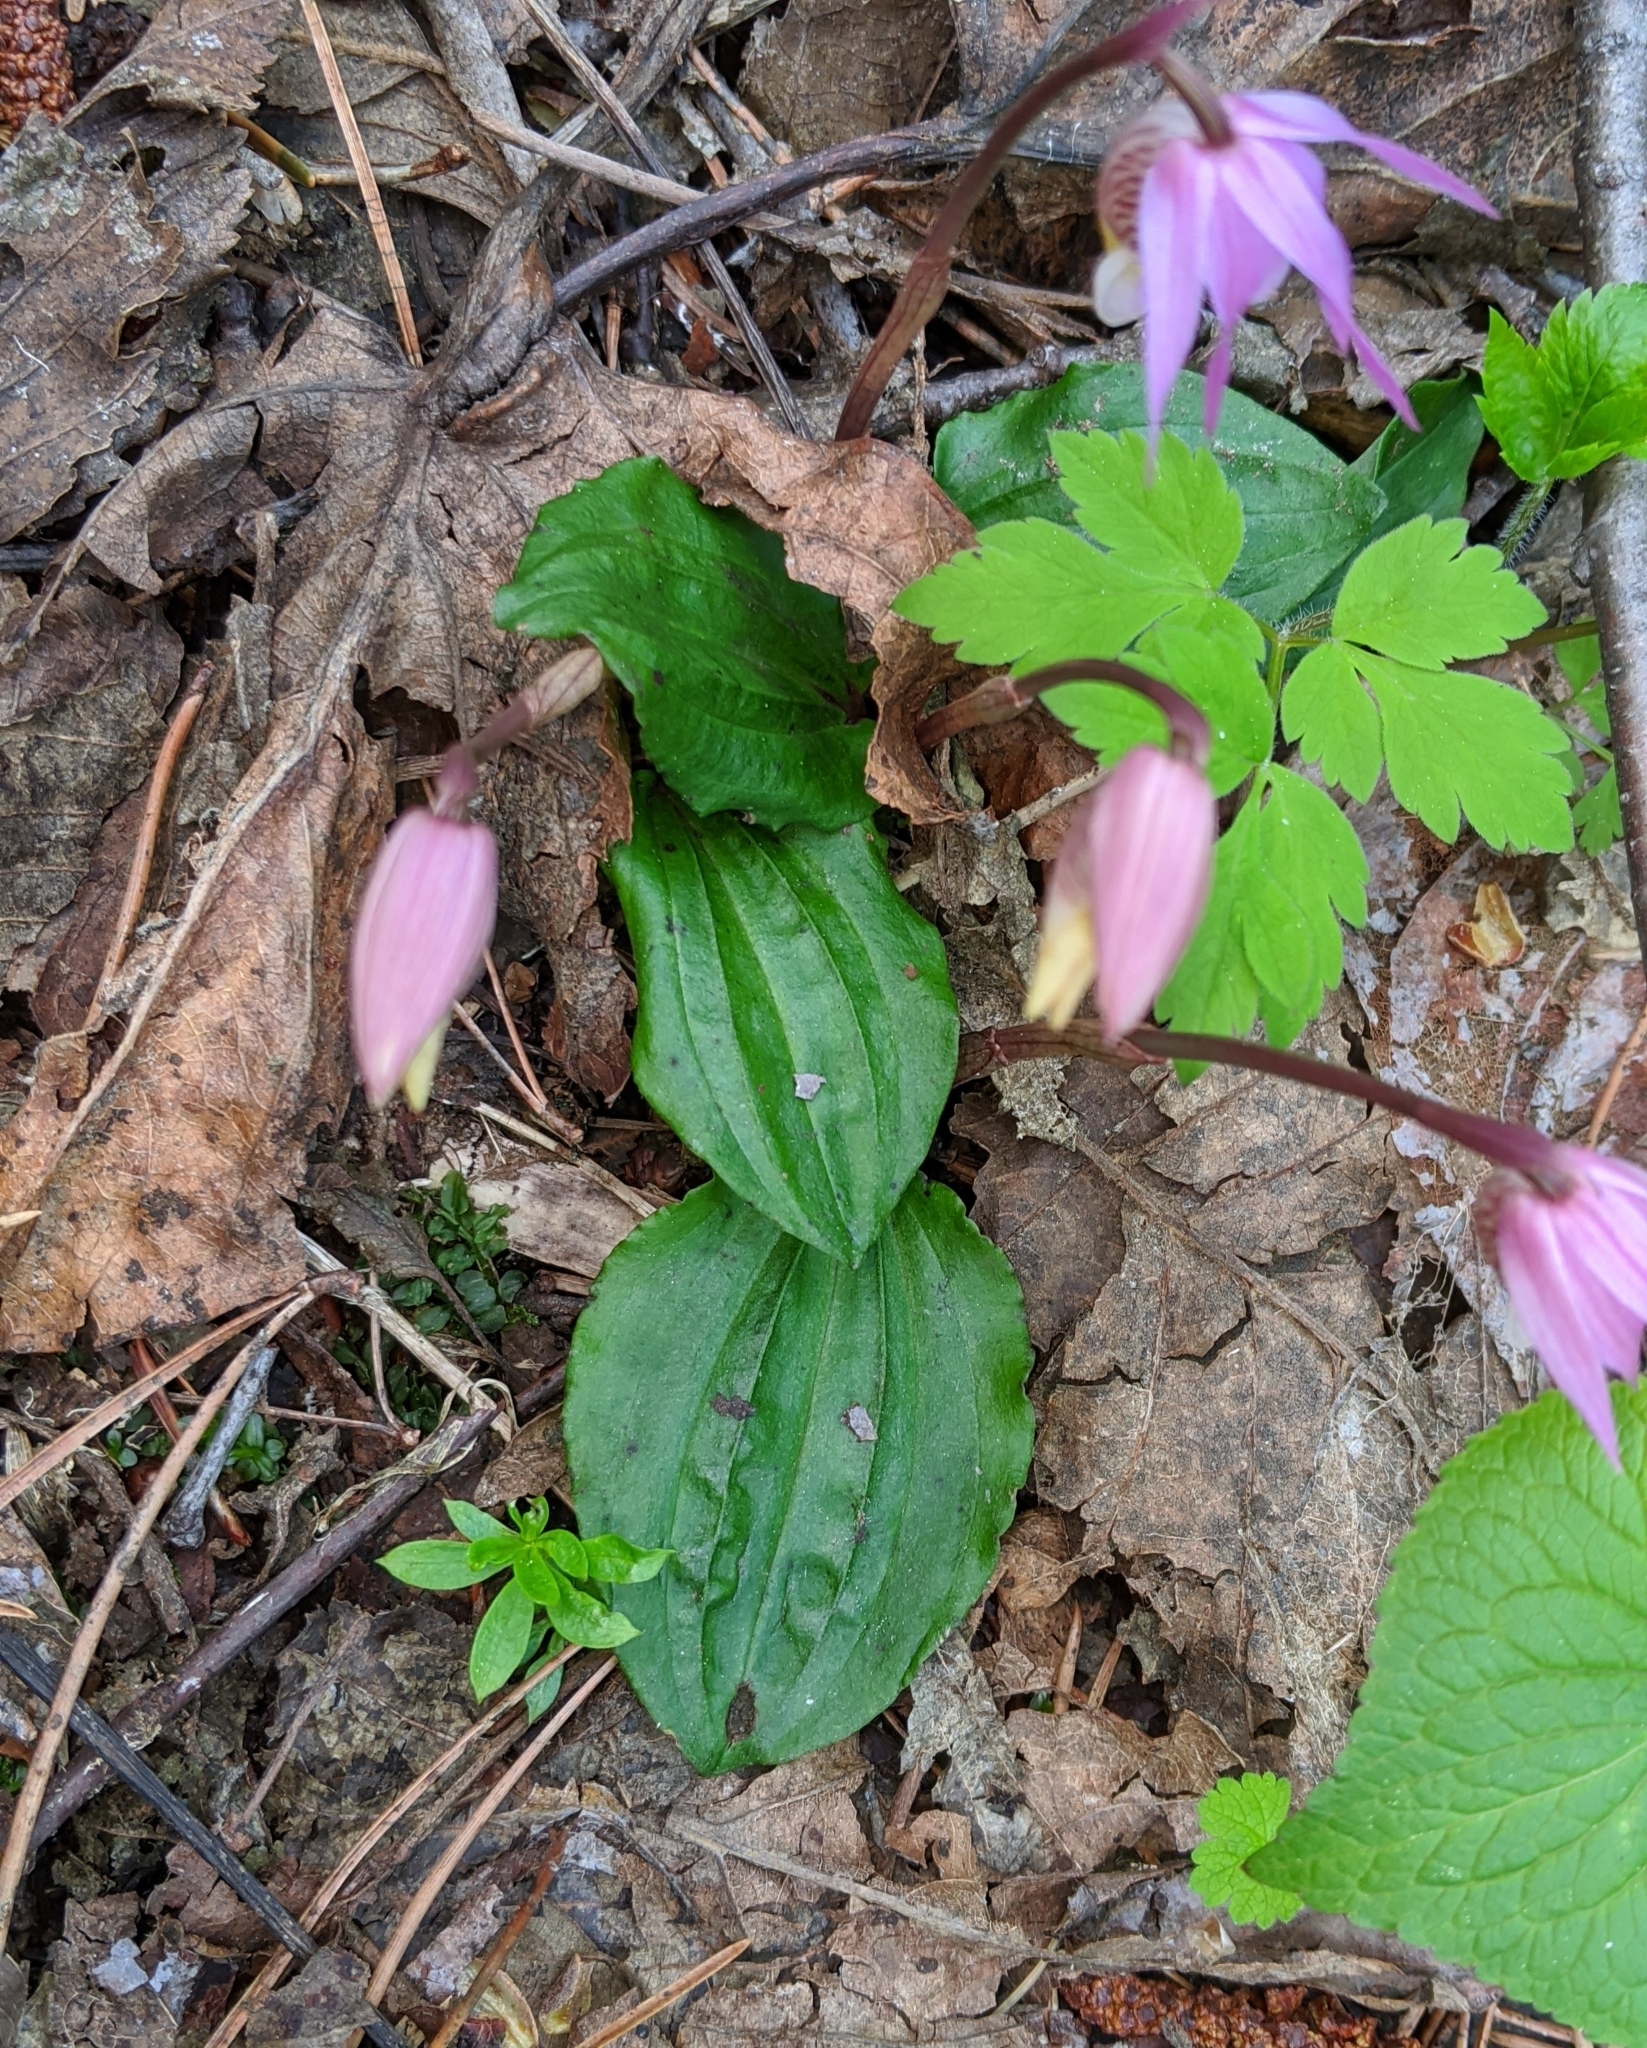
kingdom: Plantae
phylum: Tracheophyta
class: Liliopsida
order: Asparagales
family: Orchidaceae
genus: Calypso
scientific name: Calypso bulbosa
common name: Calypso
